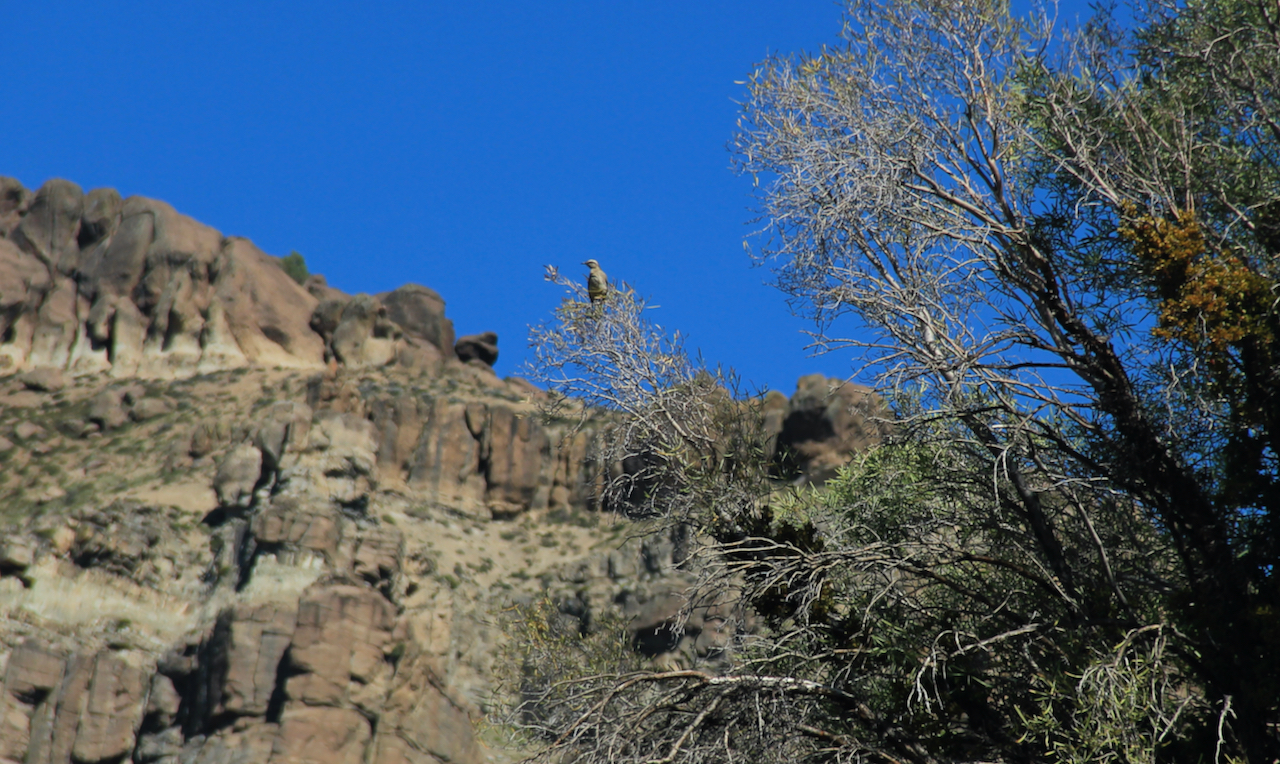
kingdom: Animalia
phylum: Chordata
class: Aves
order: Passeriformes
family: Mimidae
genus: Mimus
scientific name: Mimus thenca
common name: Chilean mockingbird
